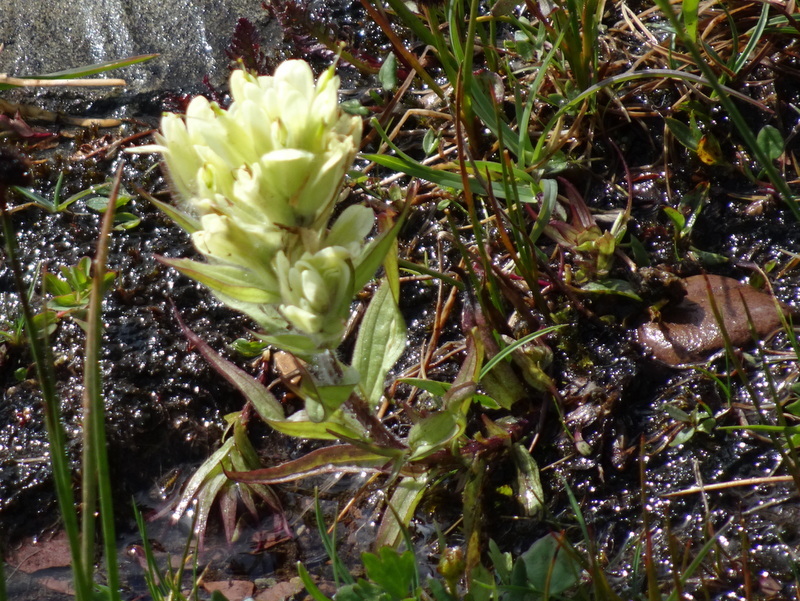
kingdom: Plantae
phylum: Tracheophyta
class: Magnoliopsida
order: Lamiales
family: Orobanchaceae
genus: Castilleja
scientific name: Castilleja occidentalis
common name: Western paintbrush
